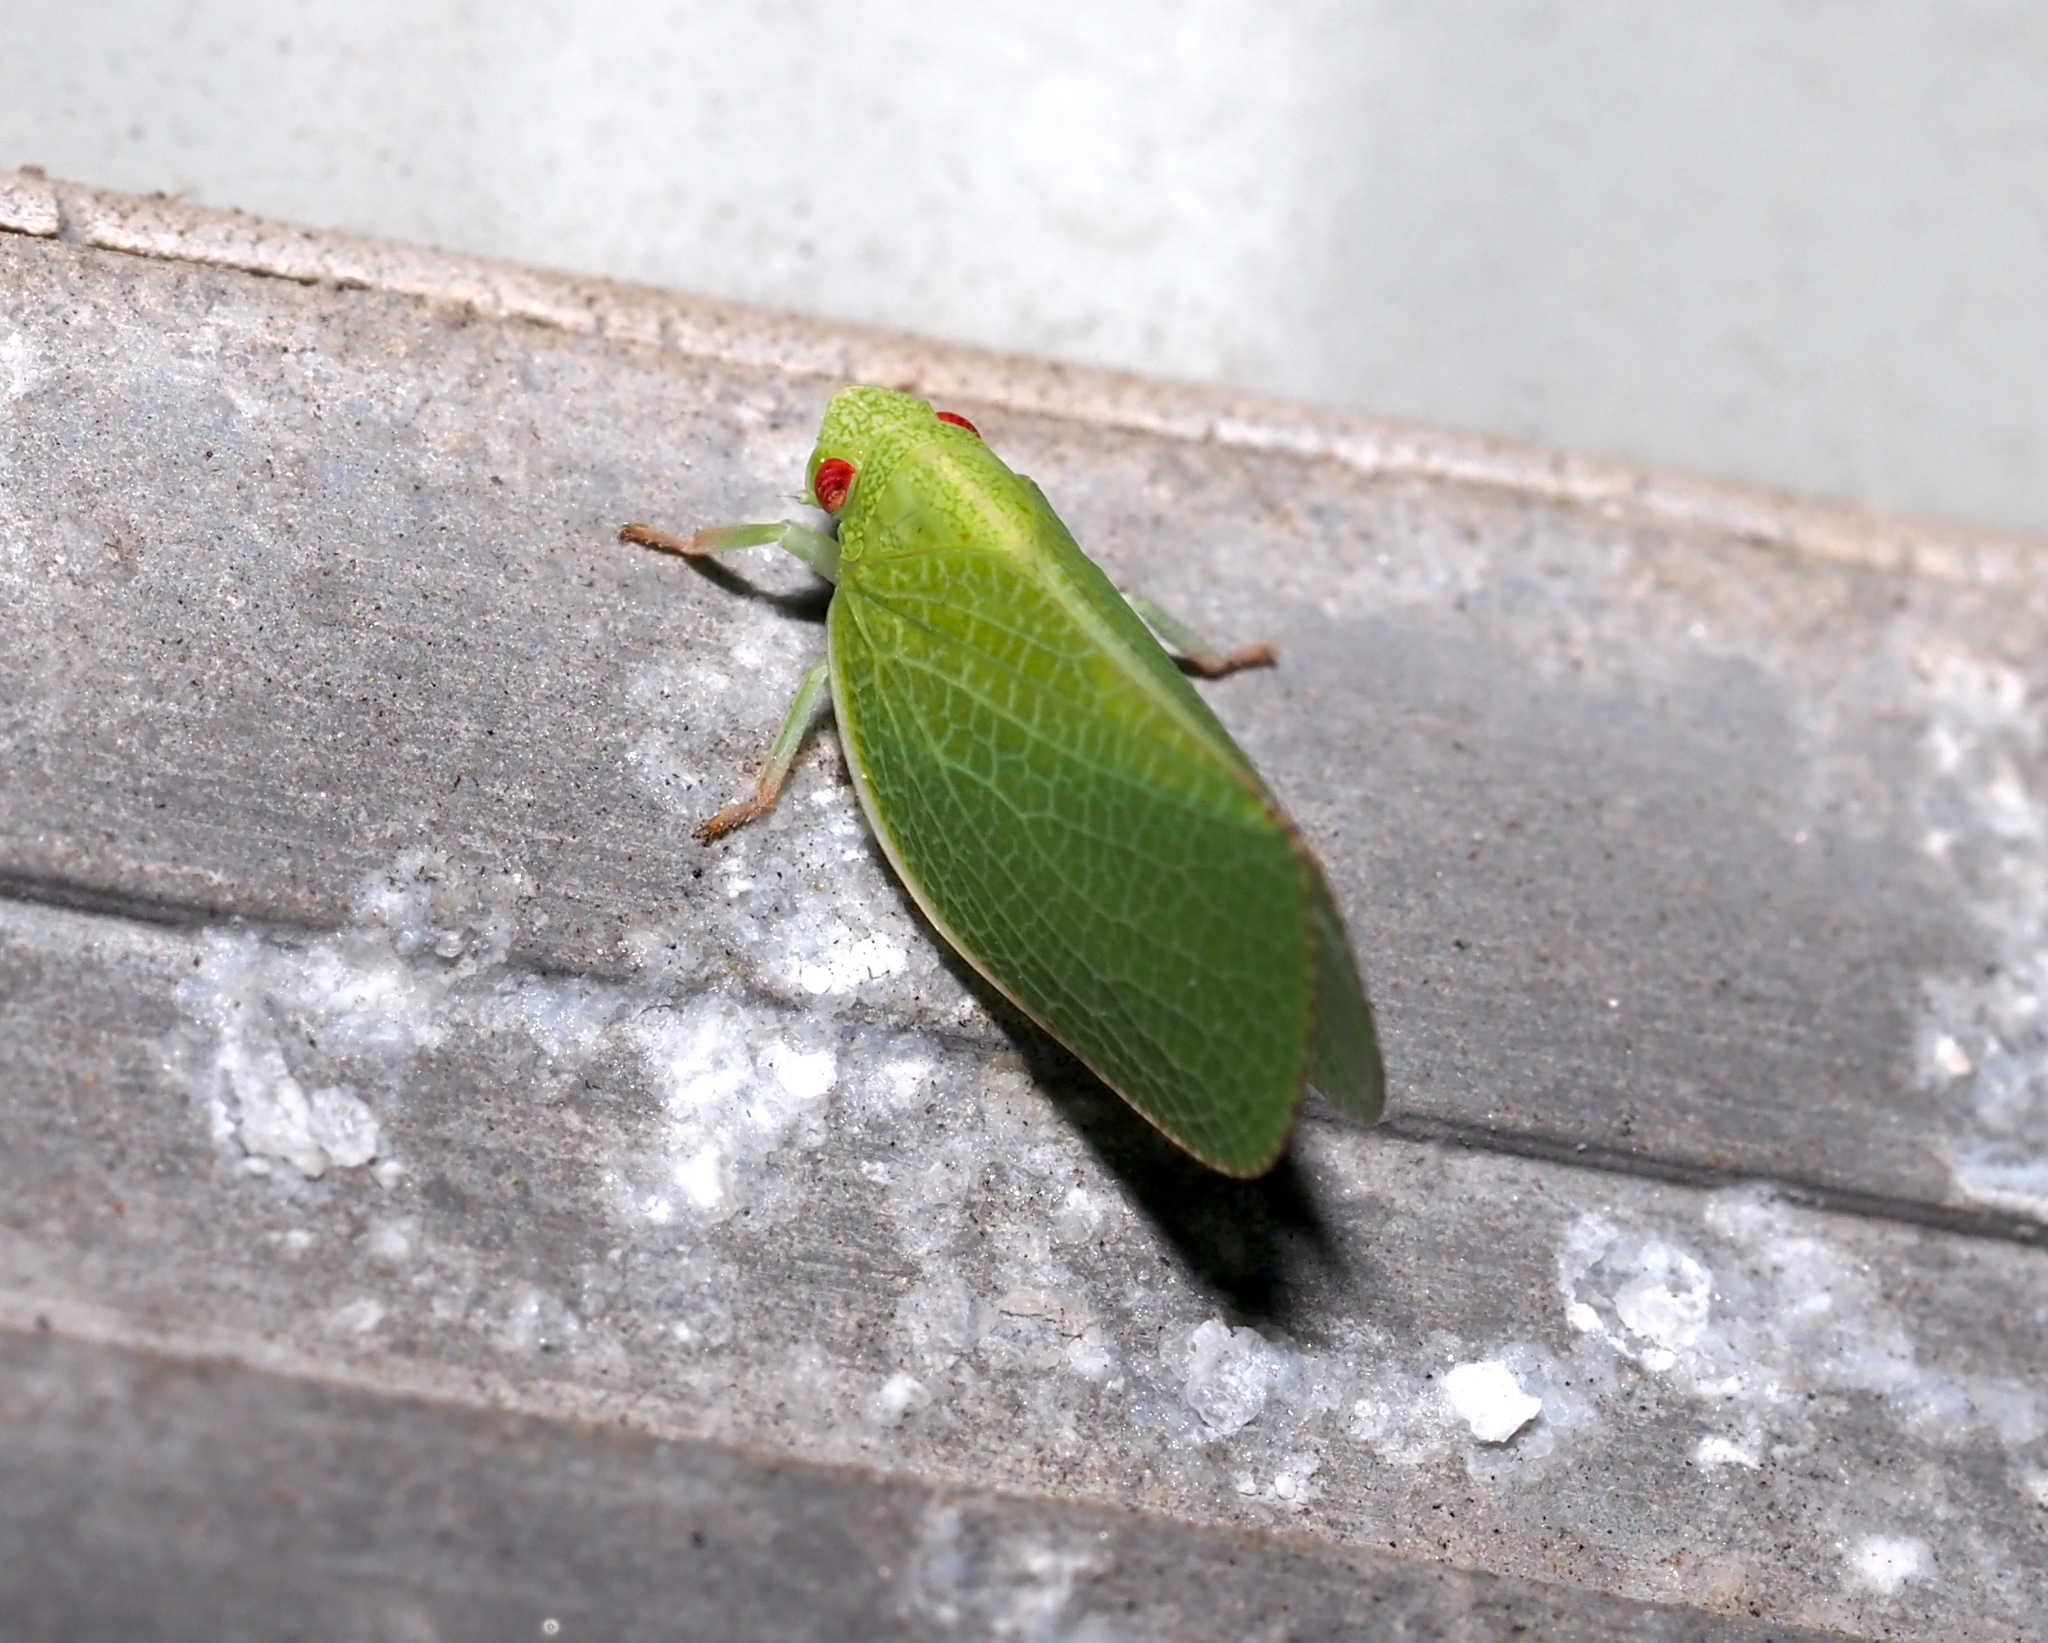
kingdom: Animalia
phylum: Arthropoda
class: Insecta
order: Hemiptera
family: Acanaloniidae
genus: Acanalonia
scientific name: Acanalonia conica
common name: Green cone-headed planthopper
